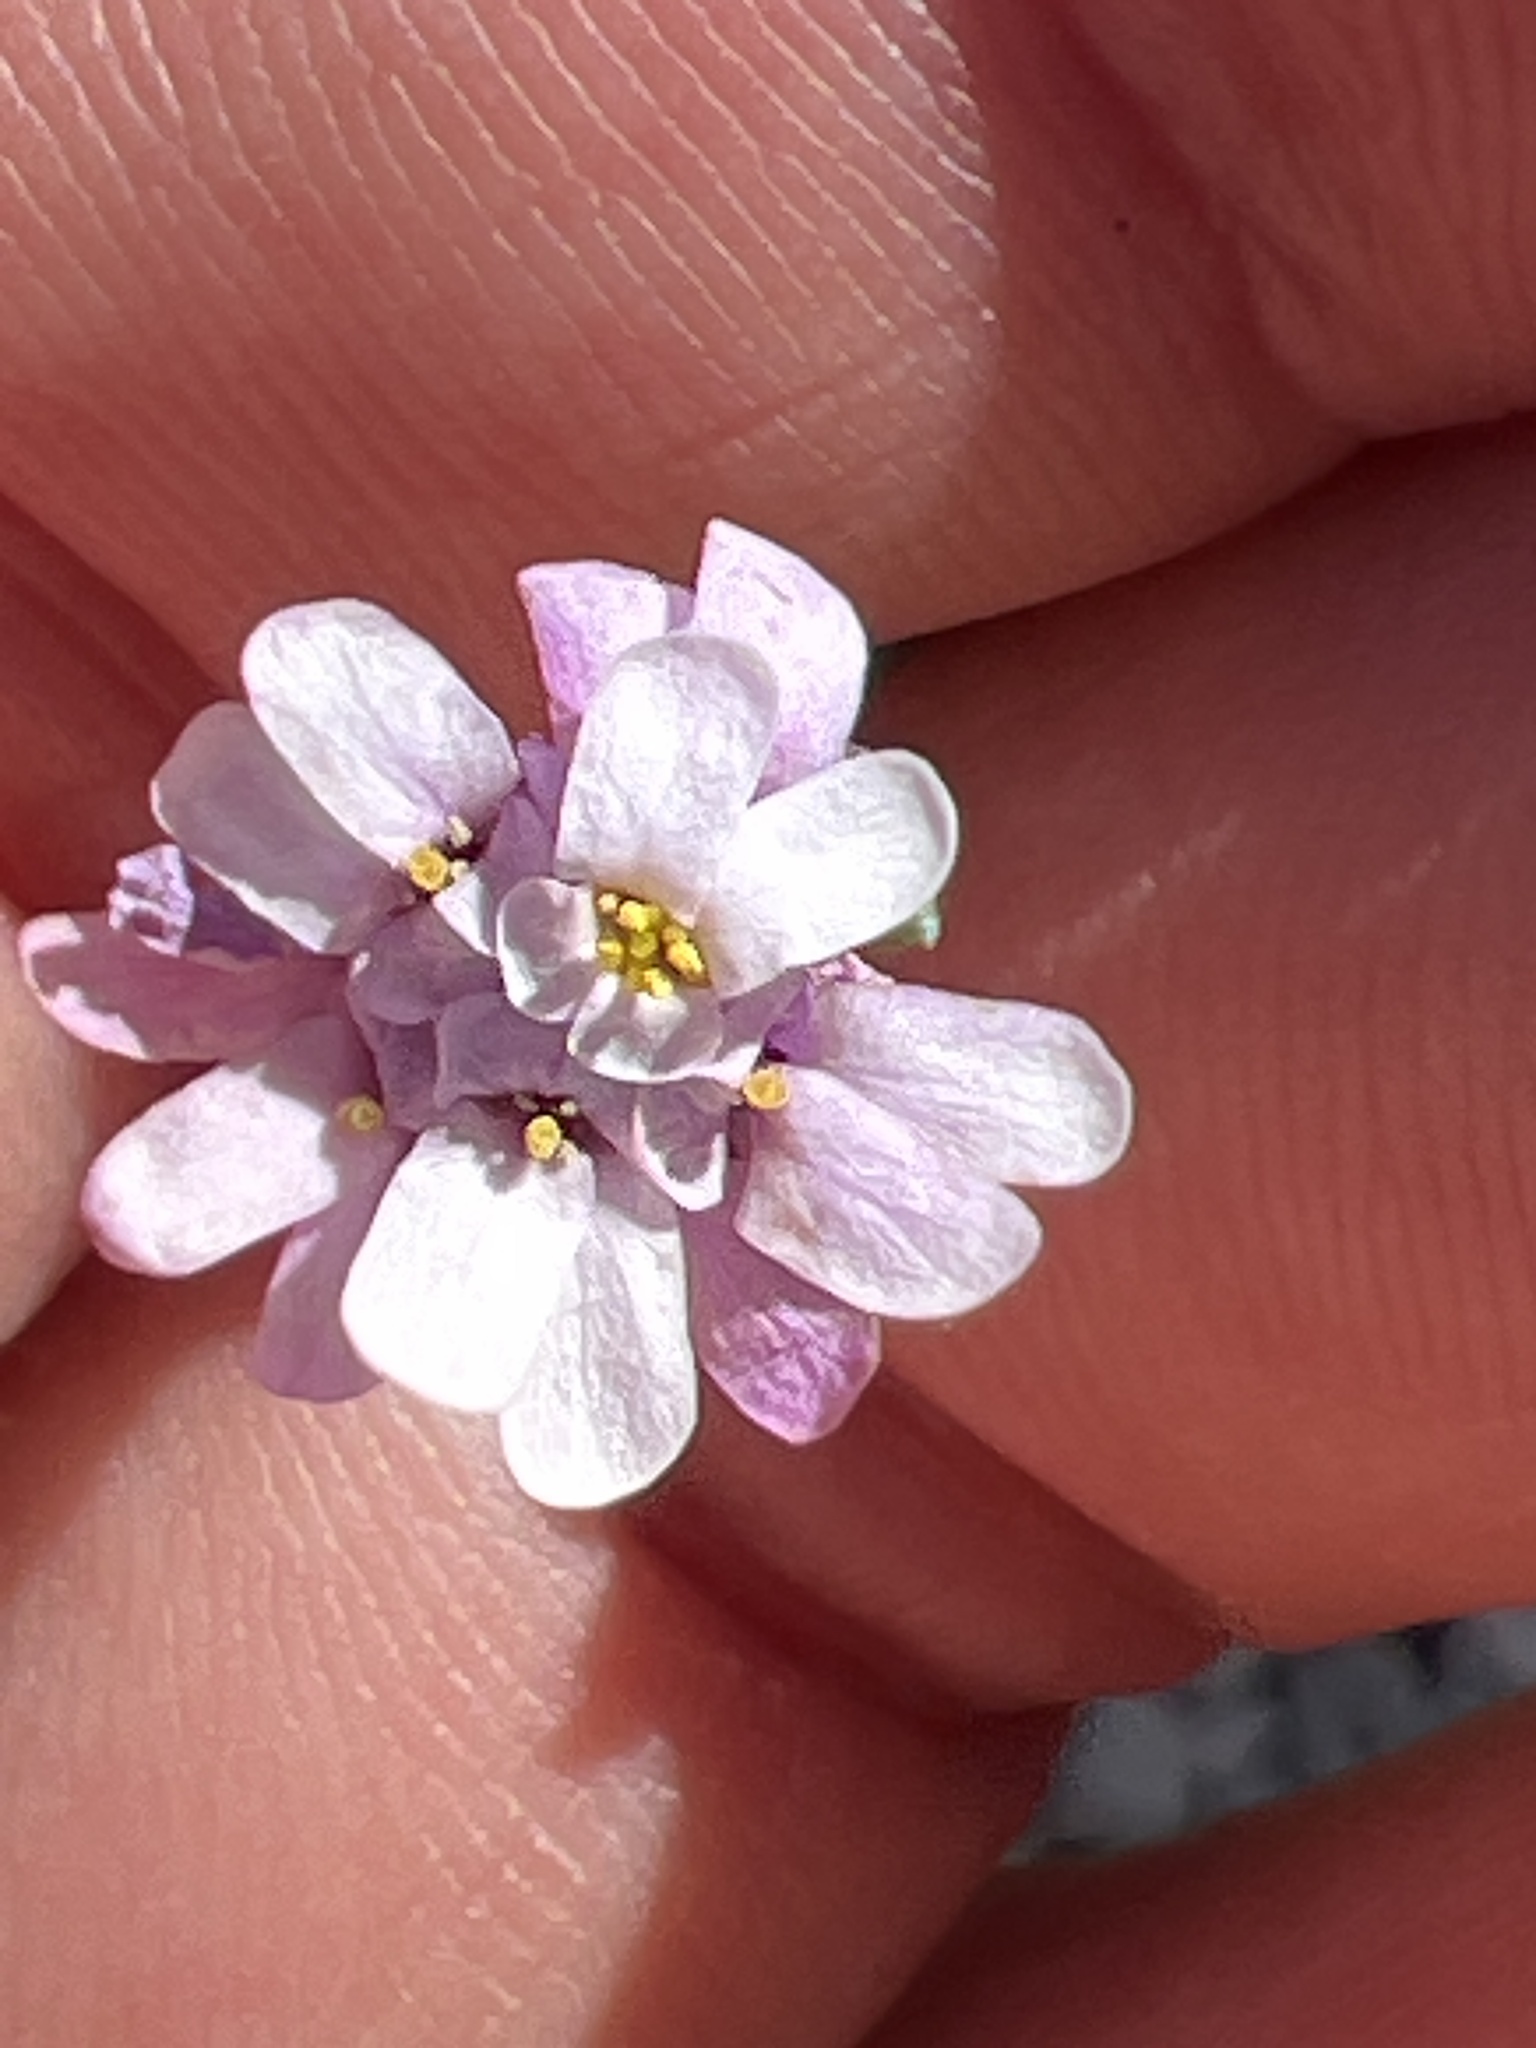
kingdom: Plantae
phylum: Tracheophyta
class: Magnoliopsida
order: Brassicales
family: Brassicaceae
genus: Iberis
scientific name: Iberis linifolia
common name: Candytuft
